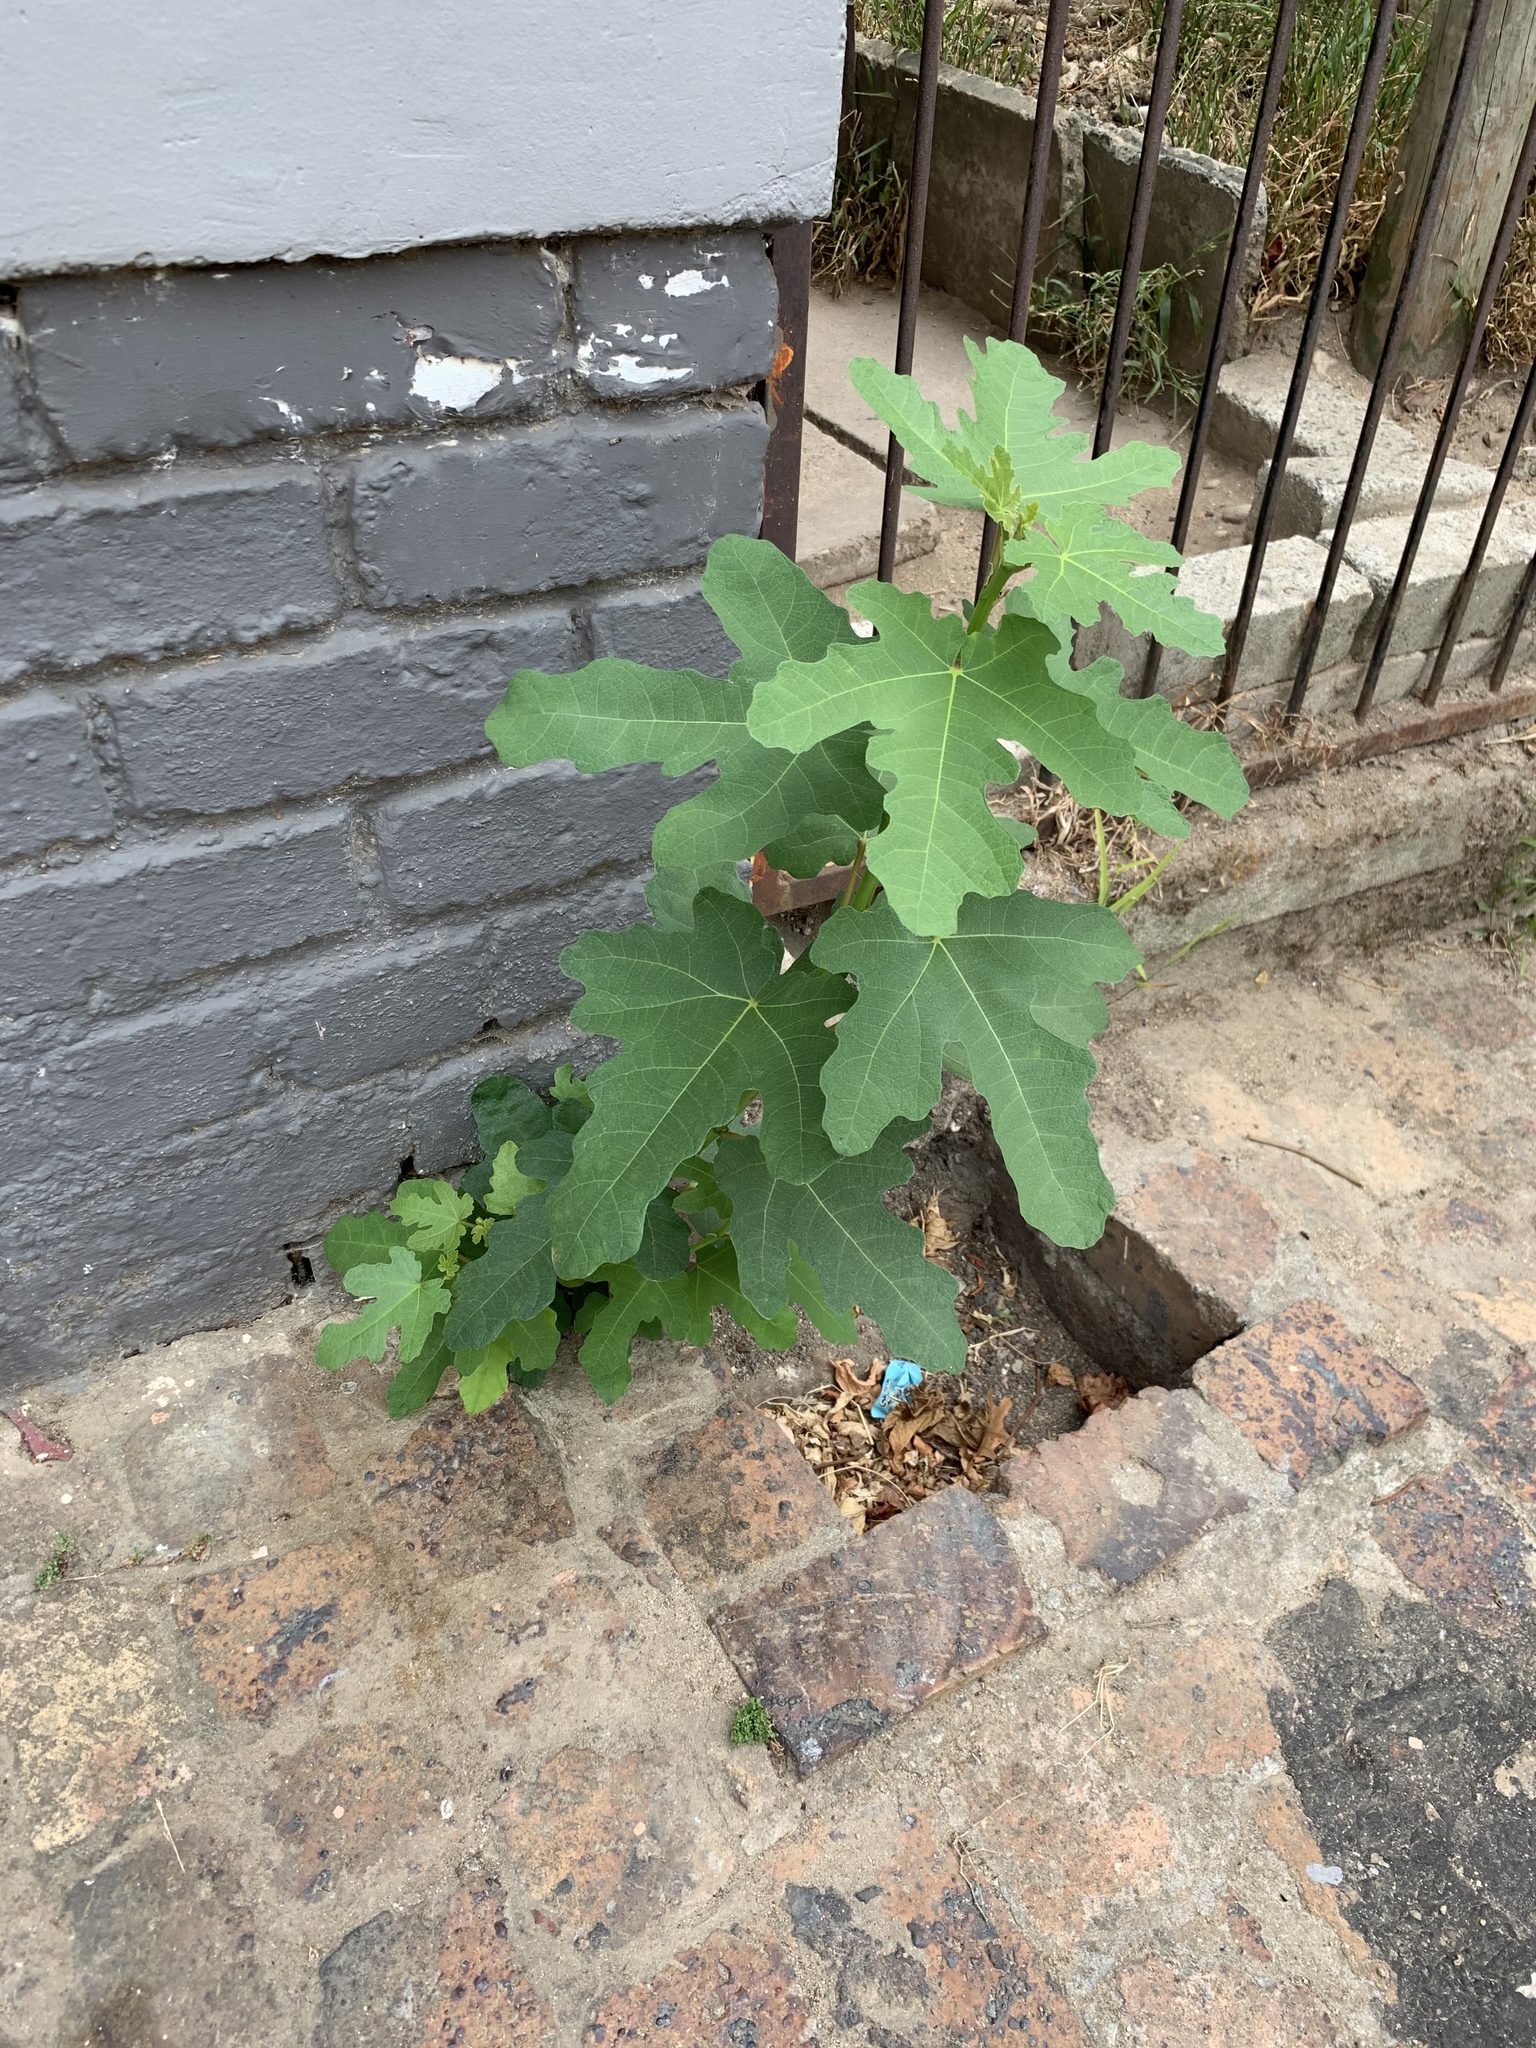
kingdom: Plantae
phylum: Tracheophyta
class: Magnoliopsida
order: Rosales
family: Moraceae
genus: Ficus
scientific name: Ficus carica
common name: Fig
